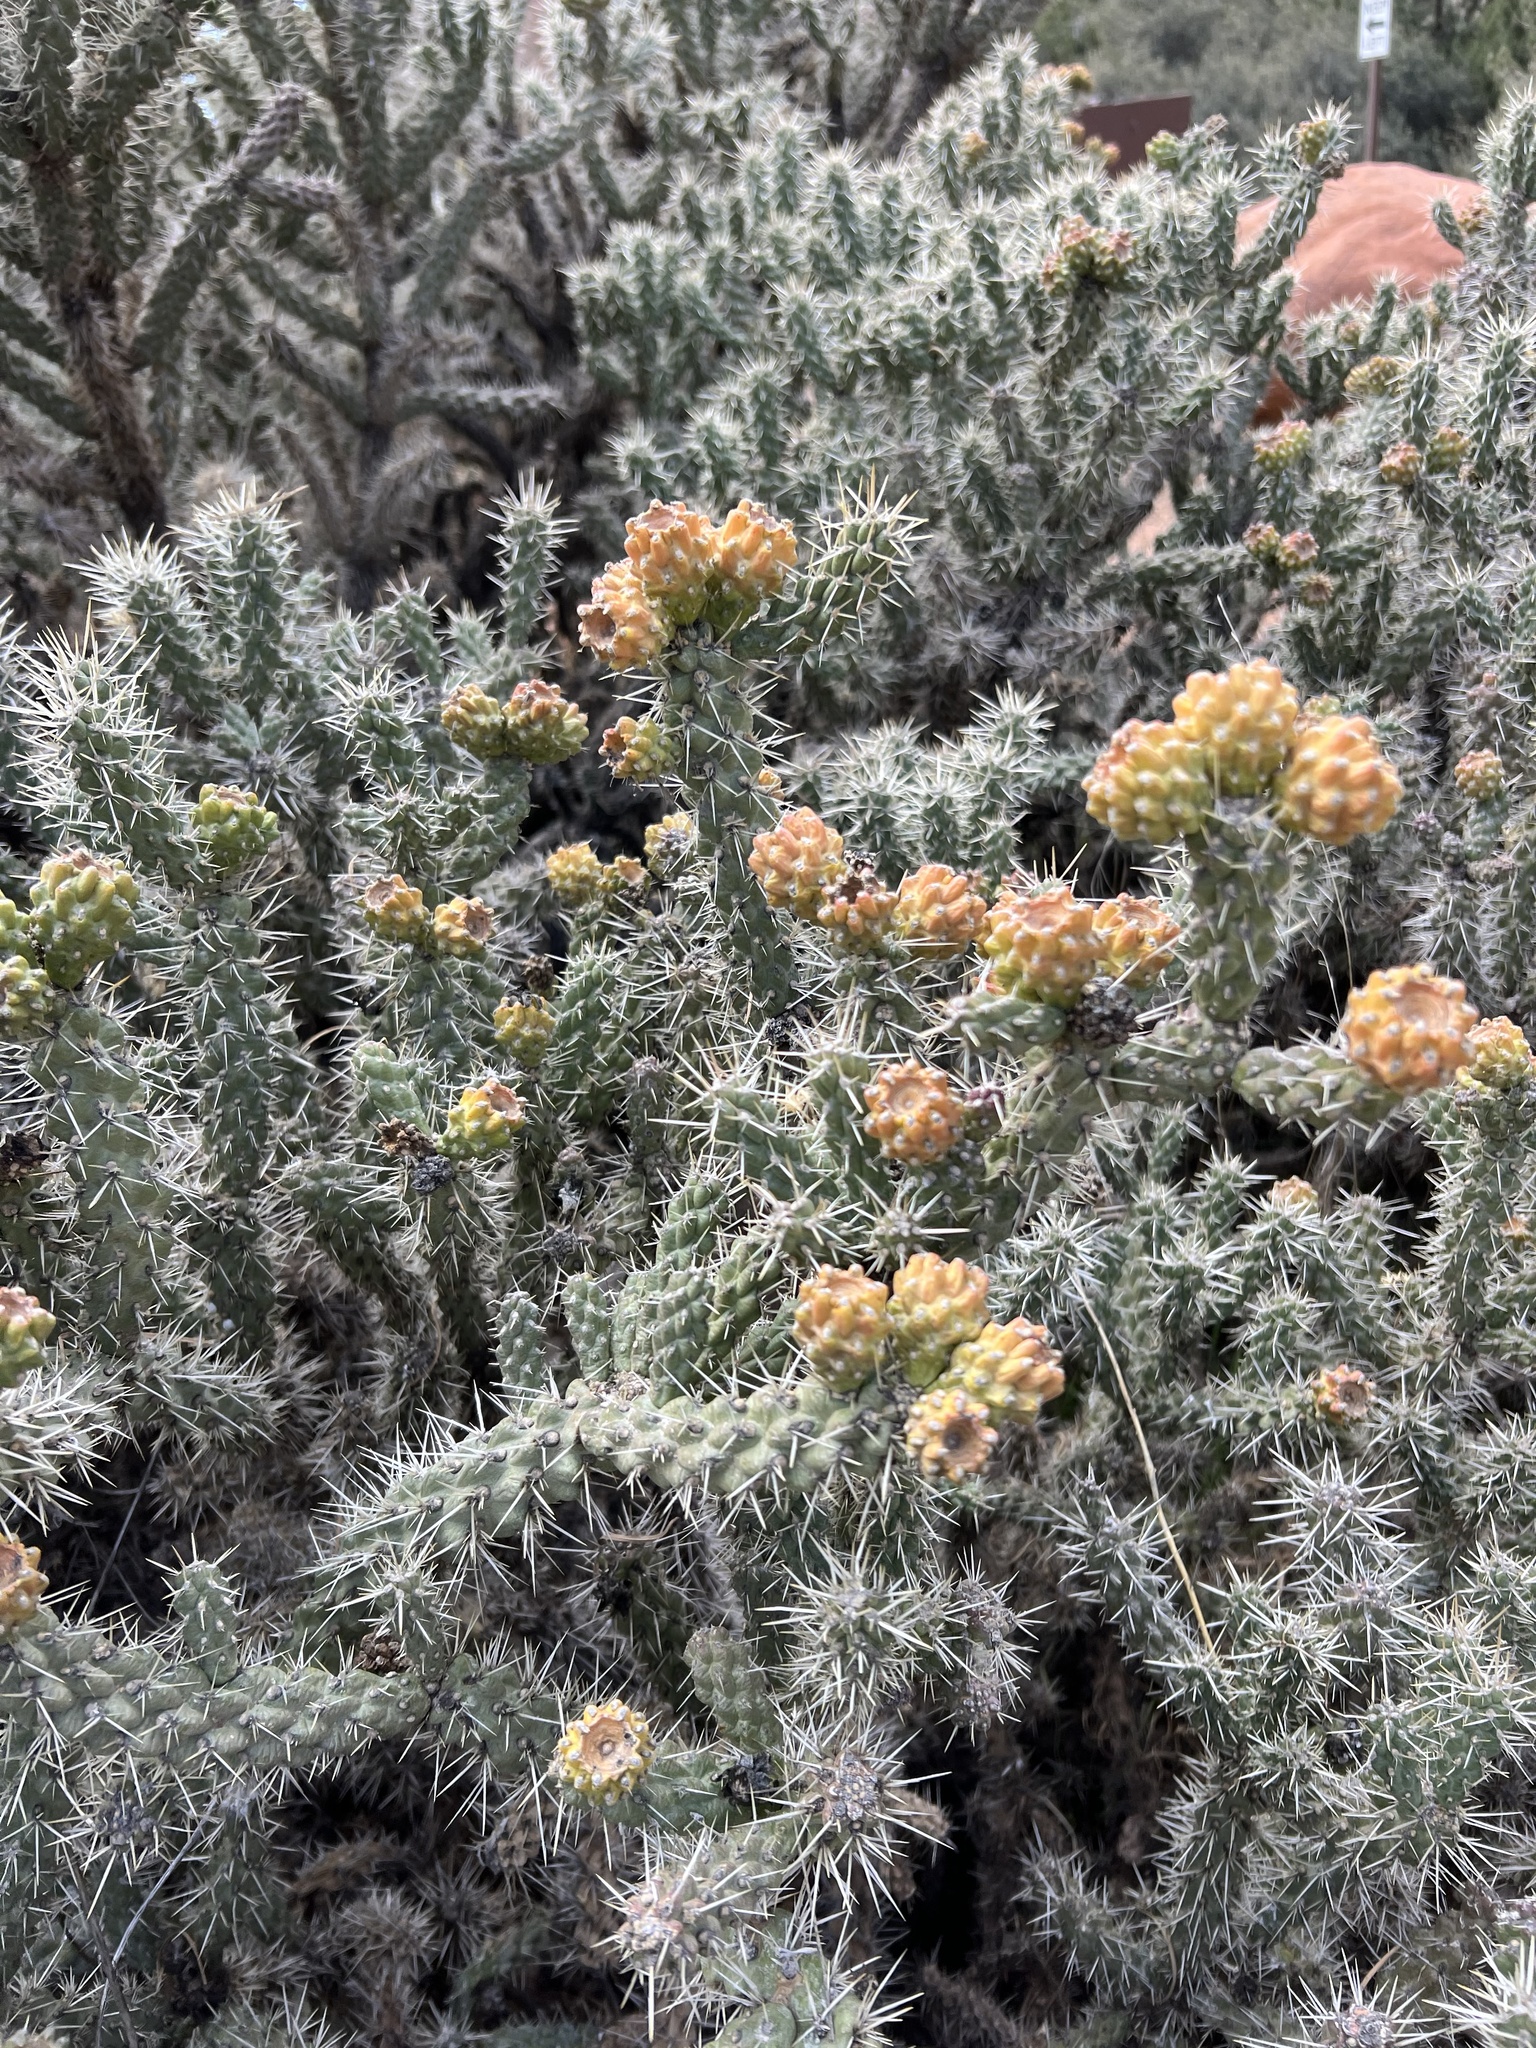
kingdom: Plantae
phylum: Tracheophyta
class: Magnoliopsida
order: Caryophyllales
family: Cactaceae
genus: Cylindropuntia
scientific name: Cylindropuntia whipplei
